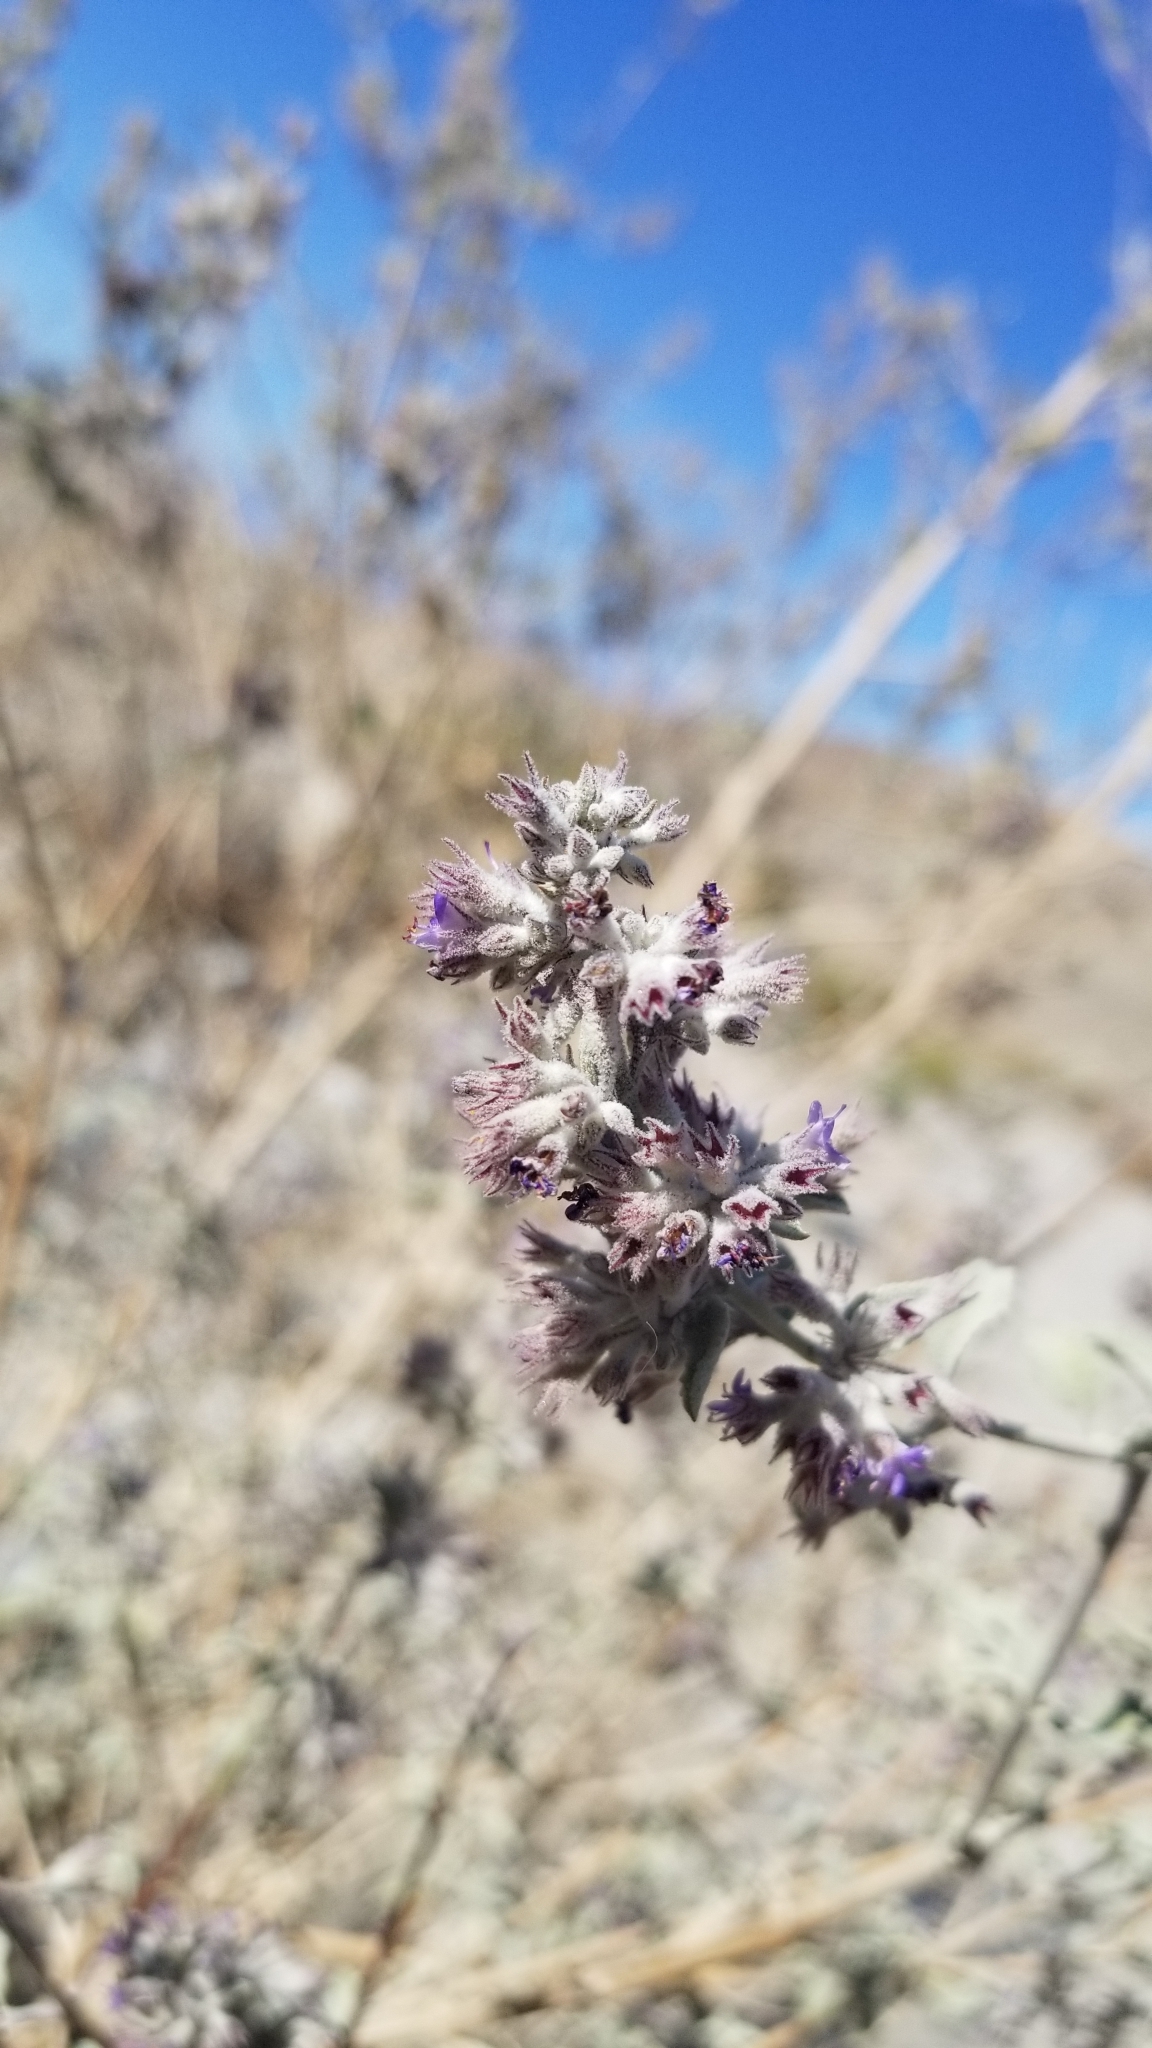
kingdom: Plantae
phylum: Tracheophyta
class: Magnoliopsida
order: Lamiales
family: Lamiaceae
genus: Condea
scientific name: Condea emoryi
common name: Chia
